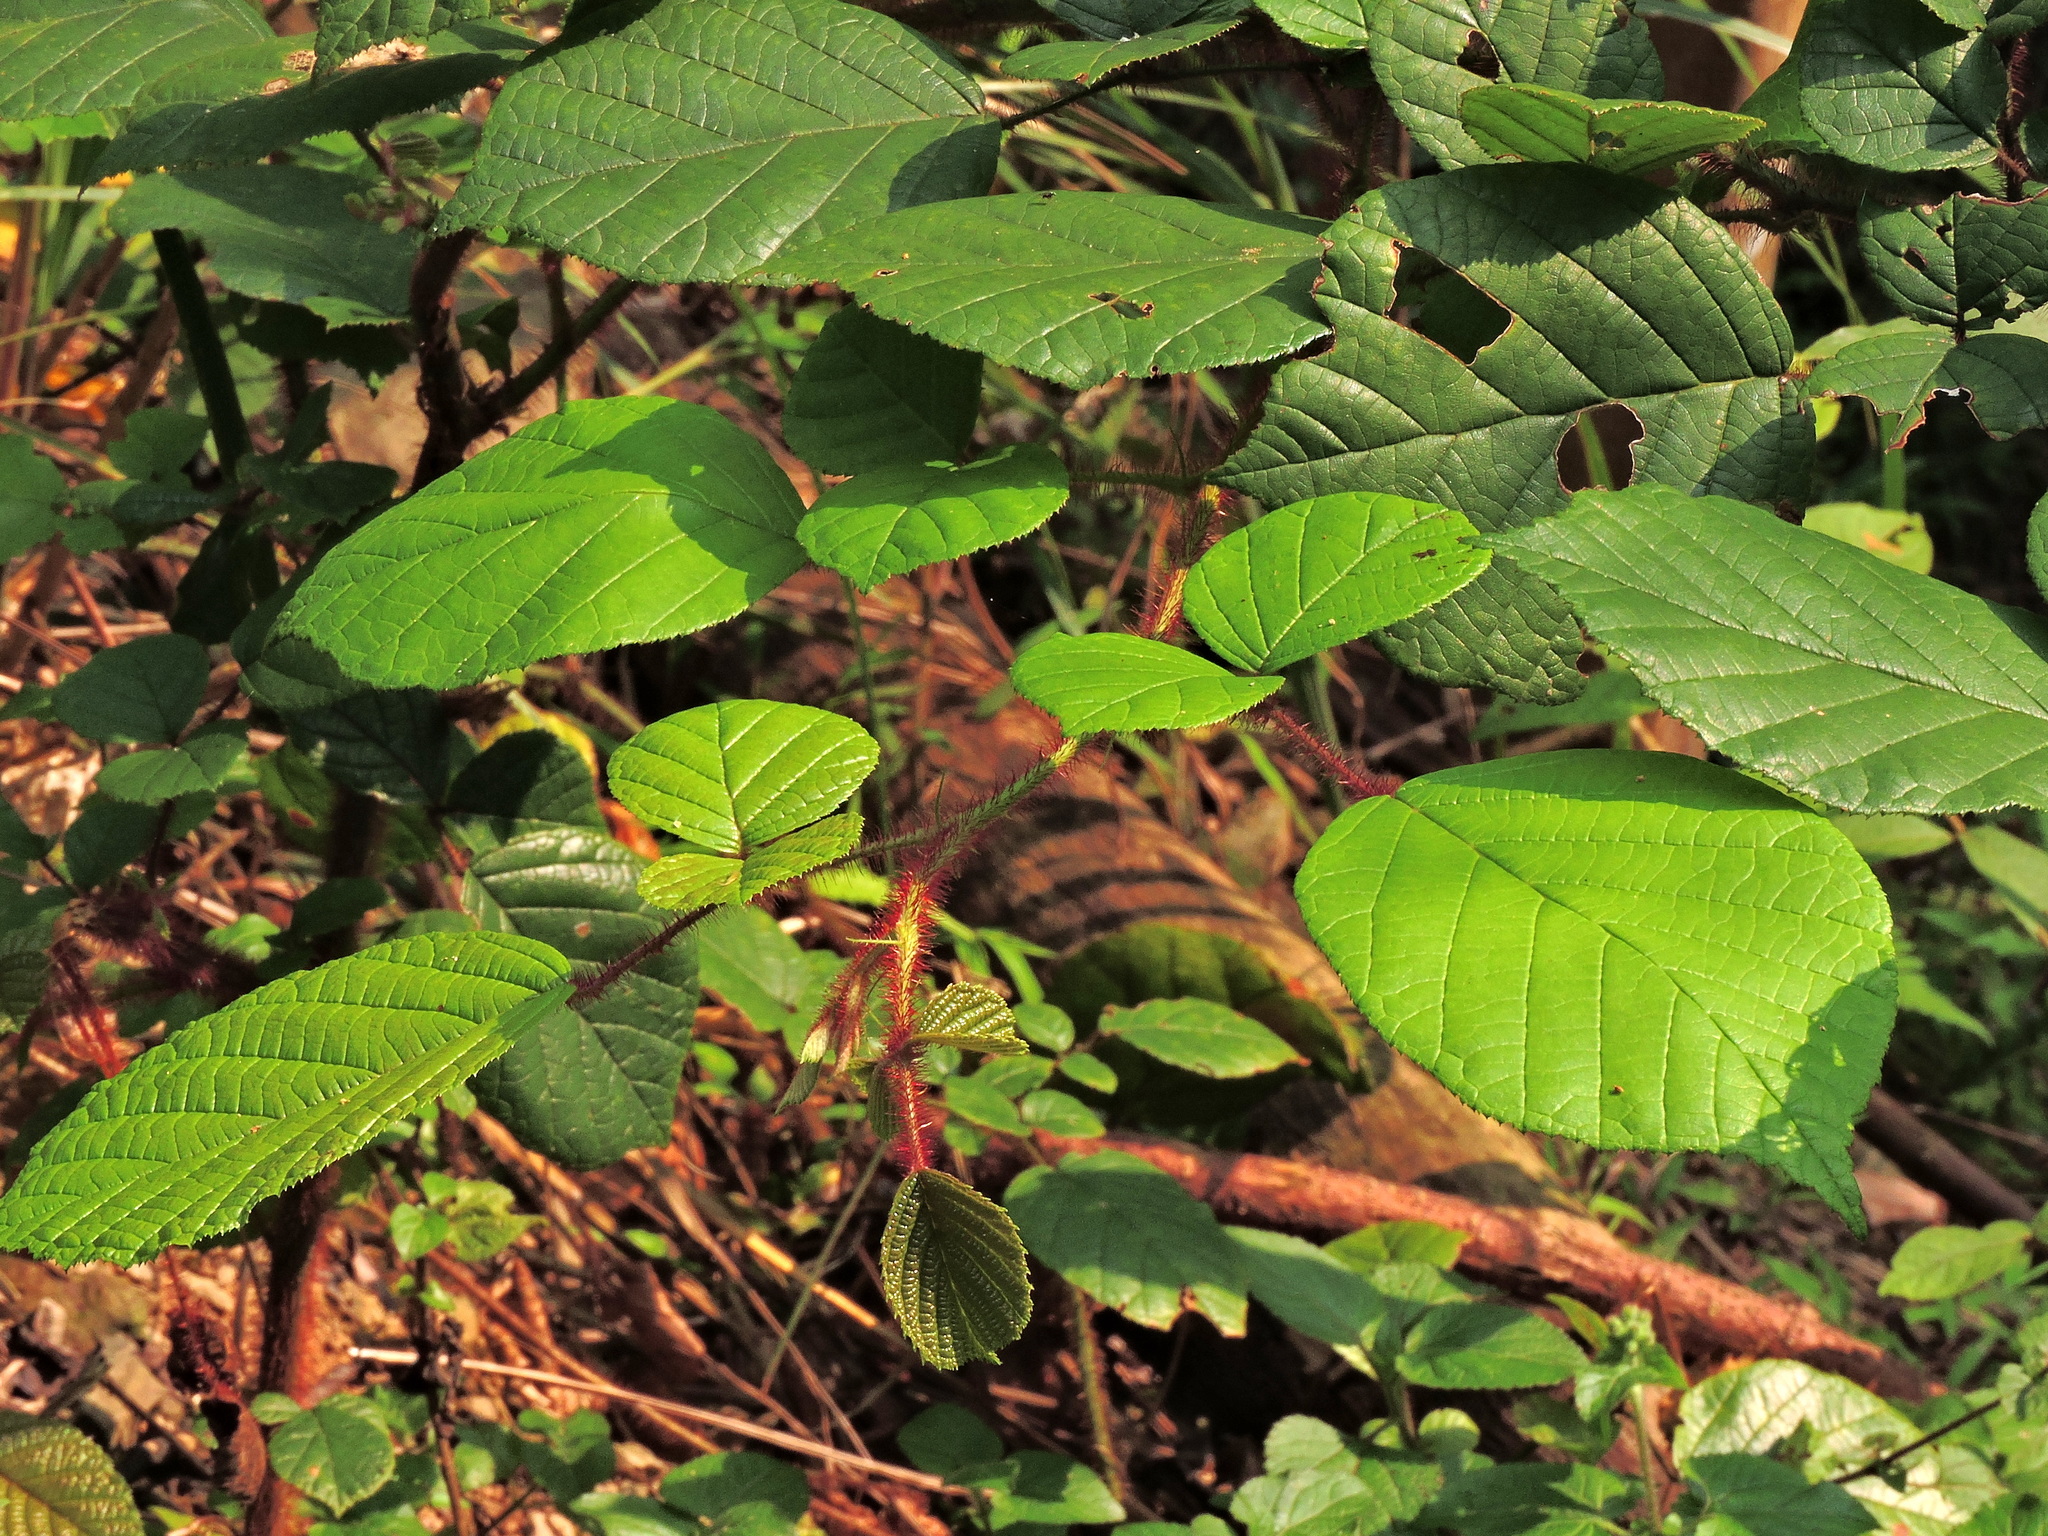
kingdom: Plantae
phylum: Tracheophyta
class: Magnoliopsida
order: Rosales
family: Rosaceae
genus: Rubus
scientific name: Rubus ellipticus
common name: Cheeseberry
